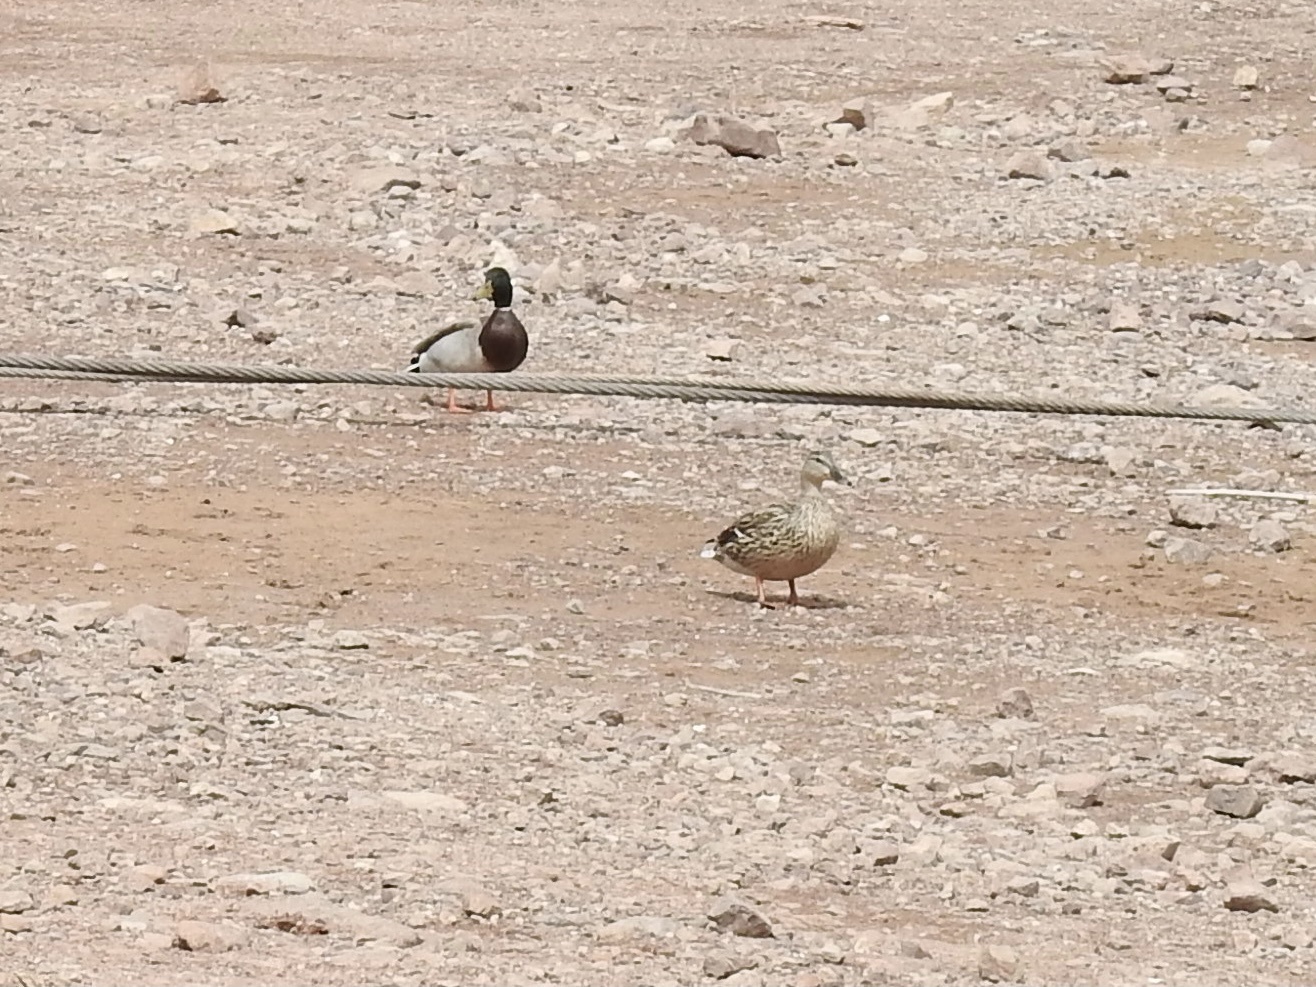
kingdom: Animalia
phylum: Chordata
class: Aves
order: Anseriformes
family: Anatidae
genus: Anas
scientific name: Anas platyrhynchos
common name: Mallard
